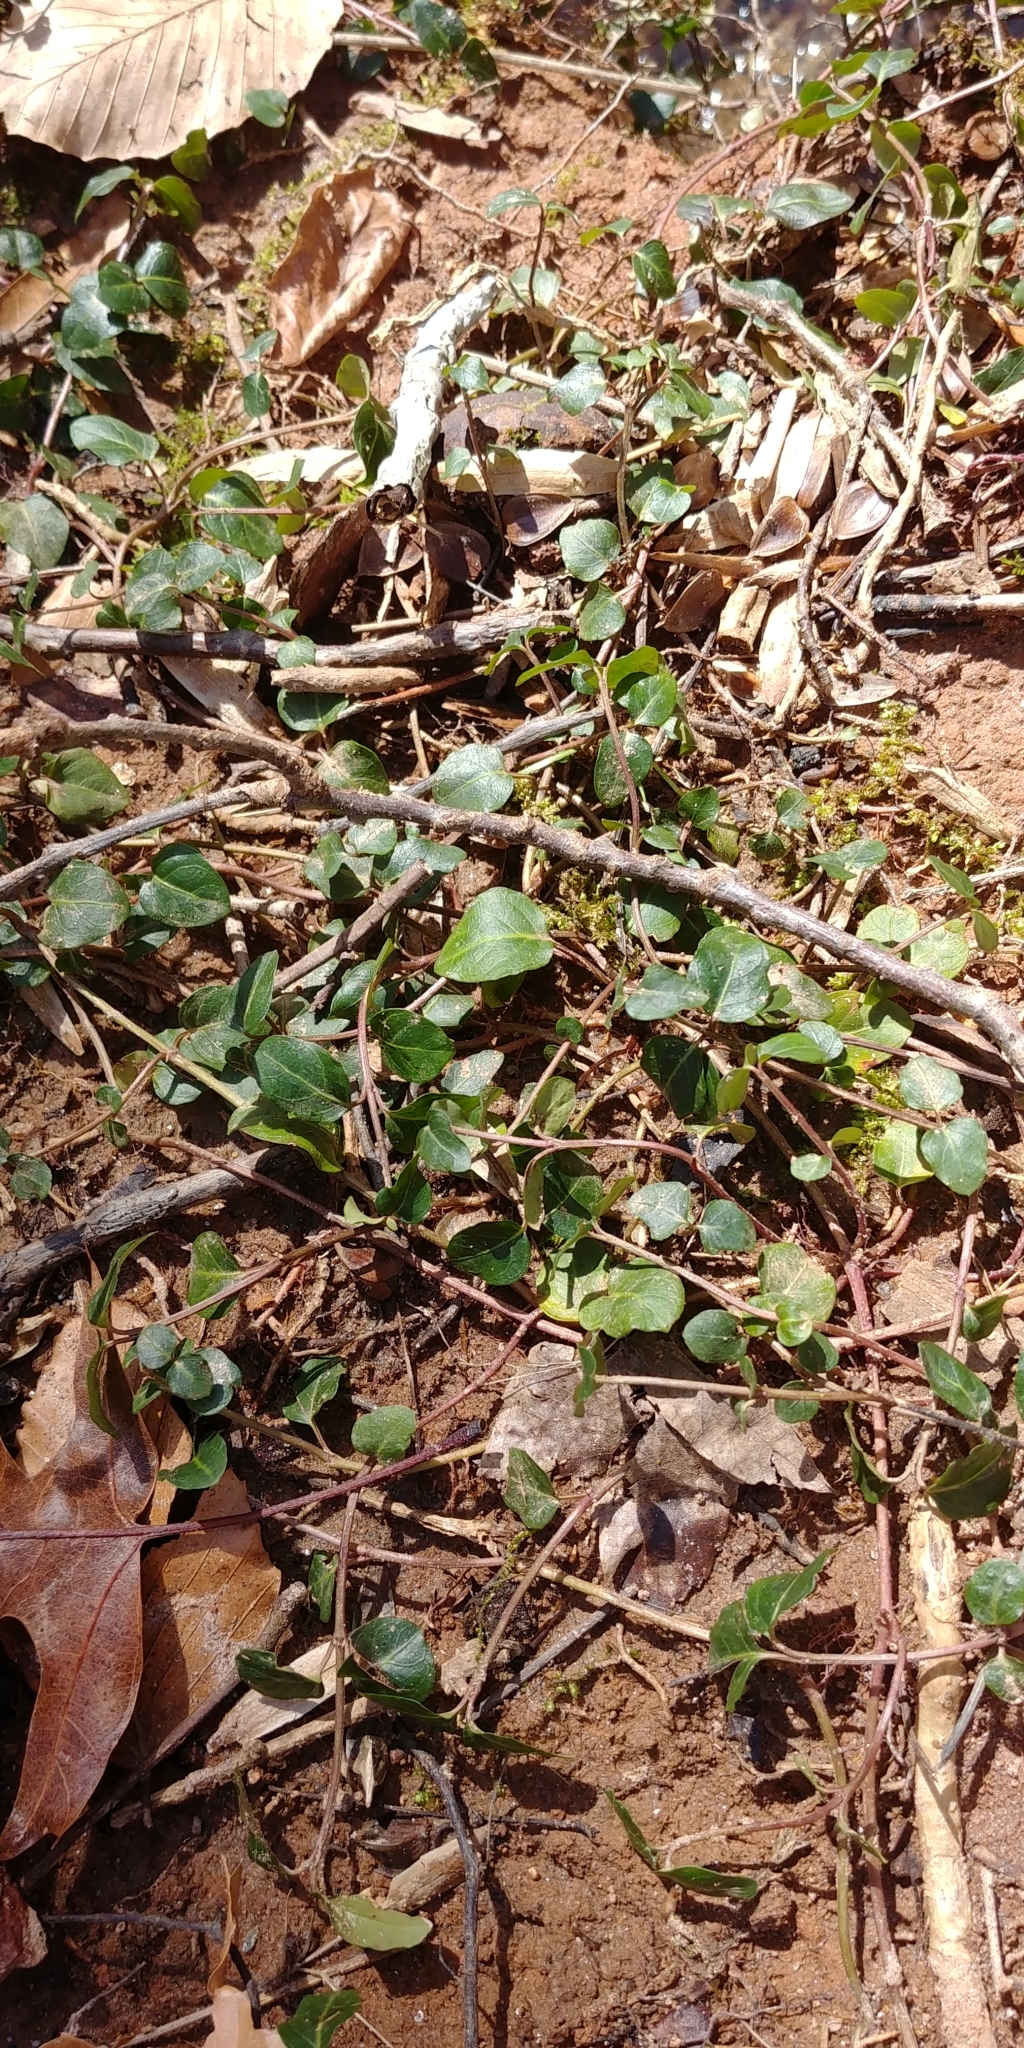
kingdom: Plantae
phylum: Tracheophyta
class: Magnoliopsida
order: Gentianales
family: Rubiaceae
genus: Mitchella
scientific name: Mitchella repens
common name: Partridge-berry
